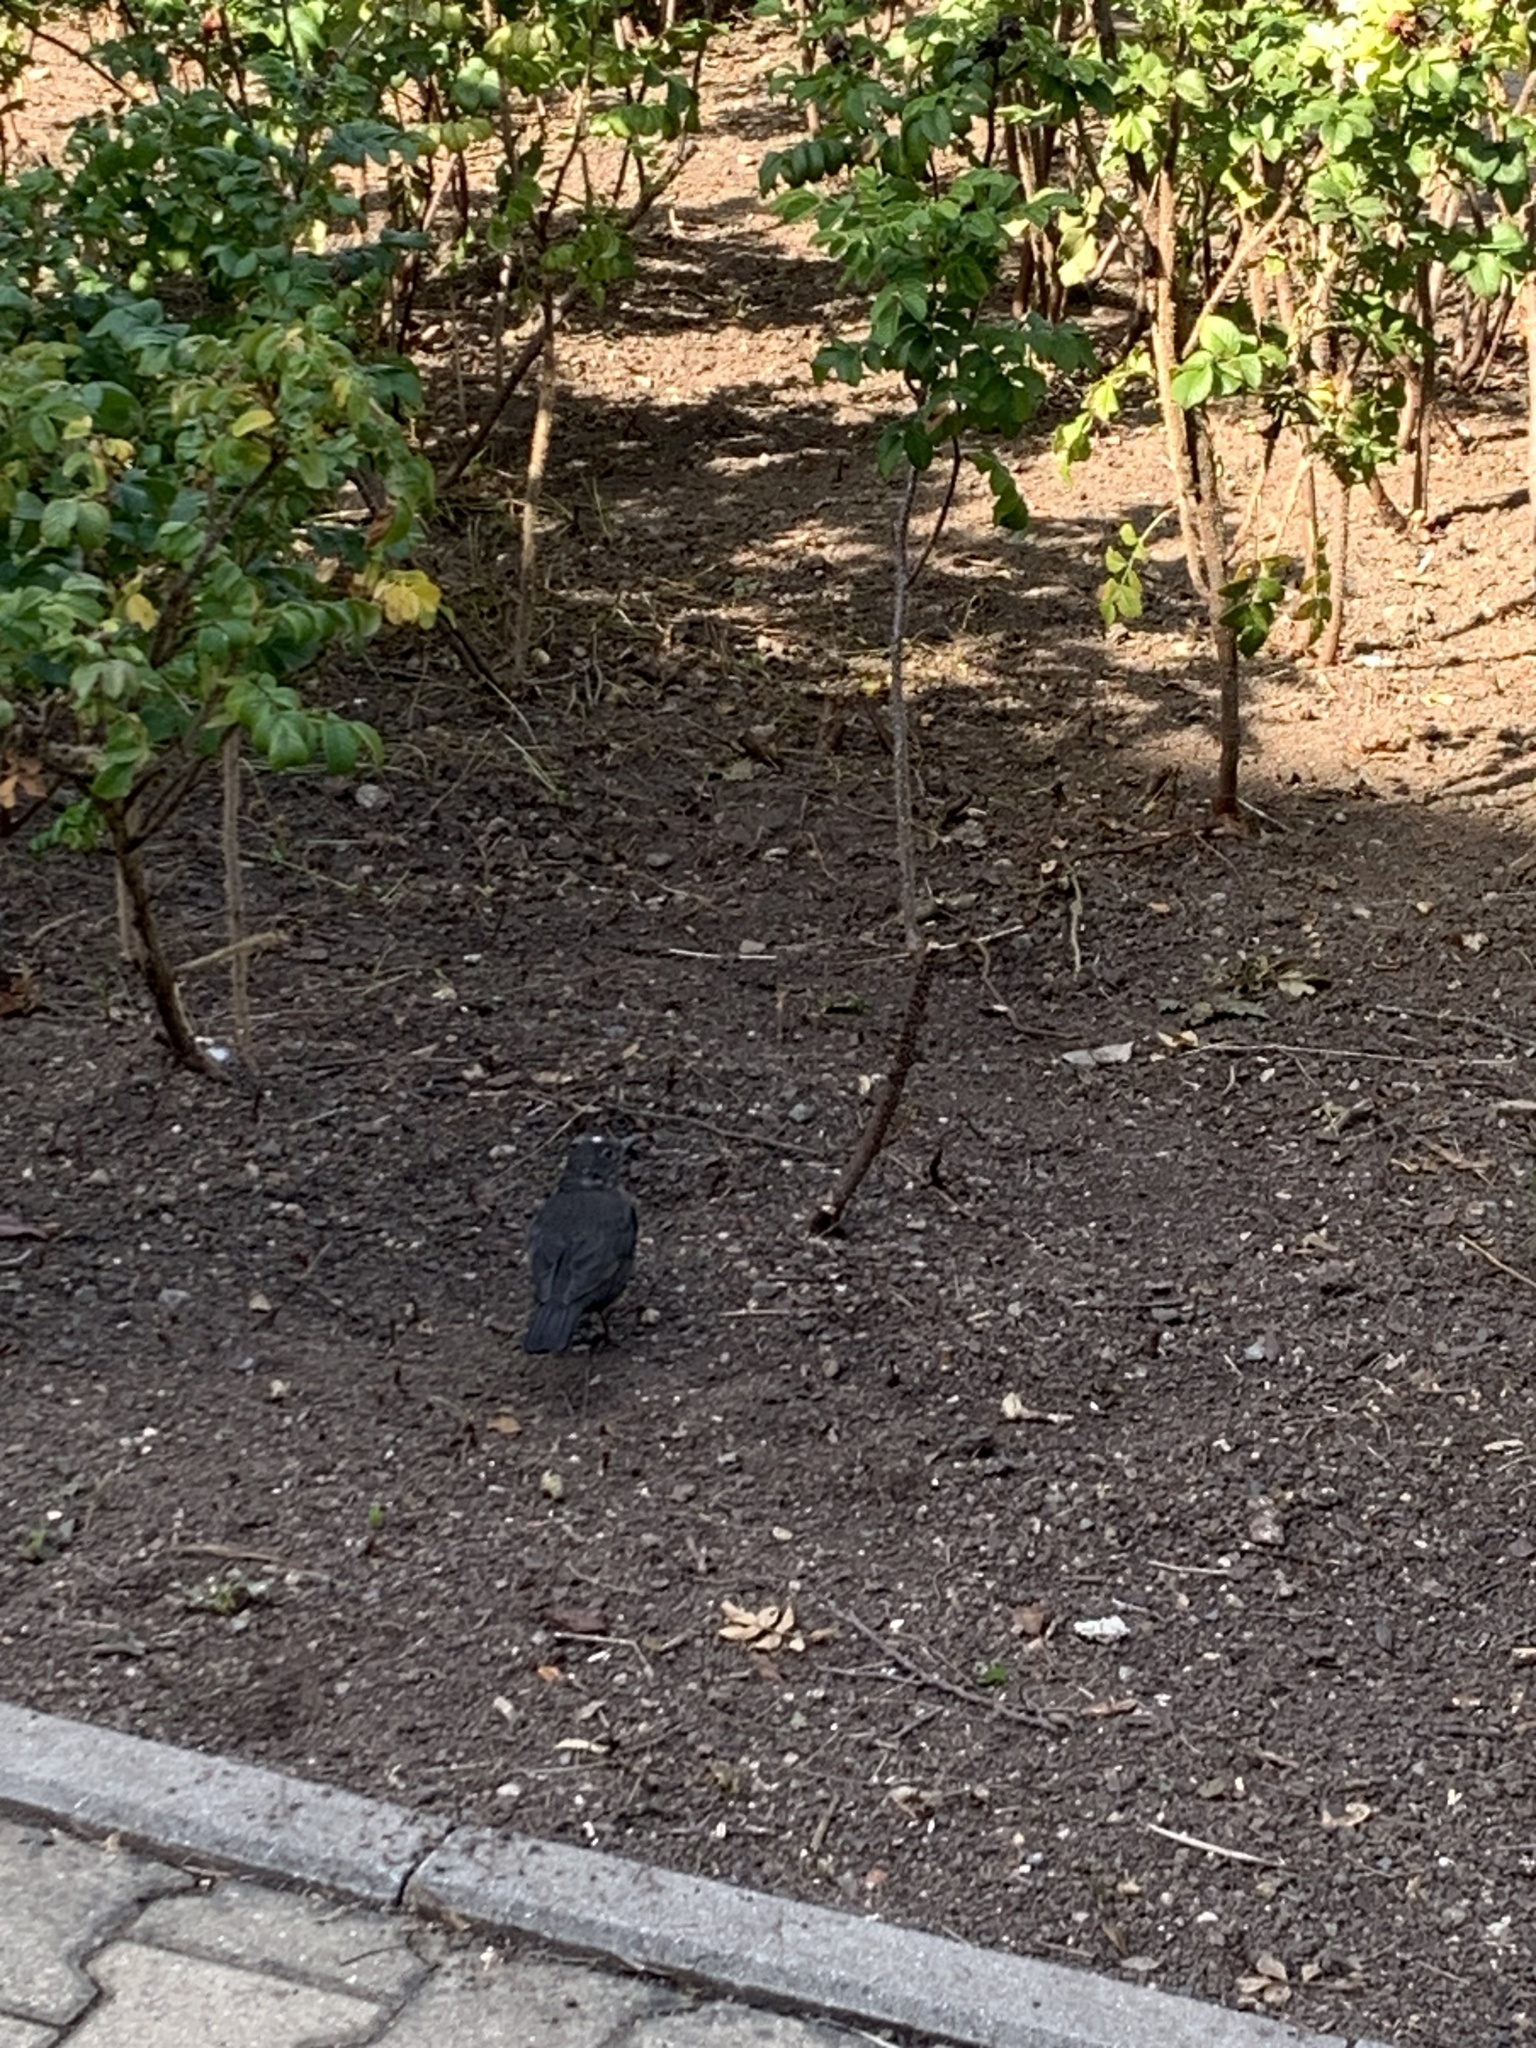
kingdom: Animalia
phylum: Chordata
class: Aves
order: Passeriformes
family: Turdidae
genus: Turdus
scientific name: Turdus merula
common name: Common blackbird
